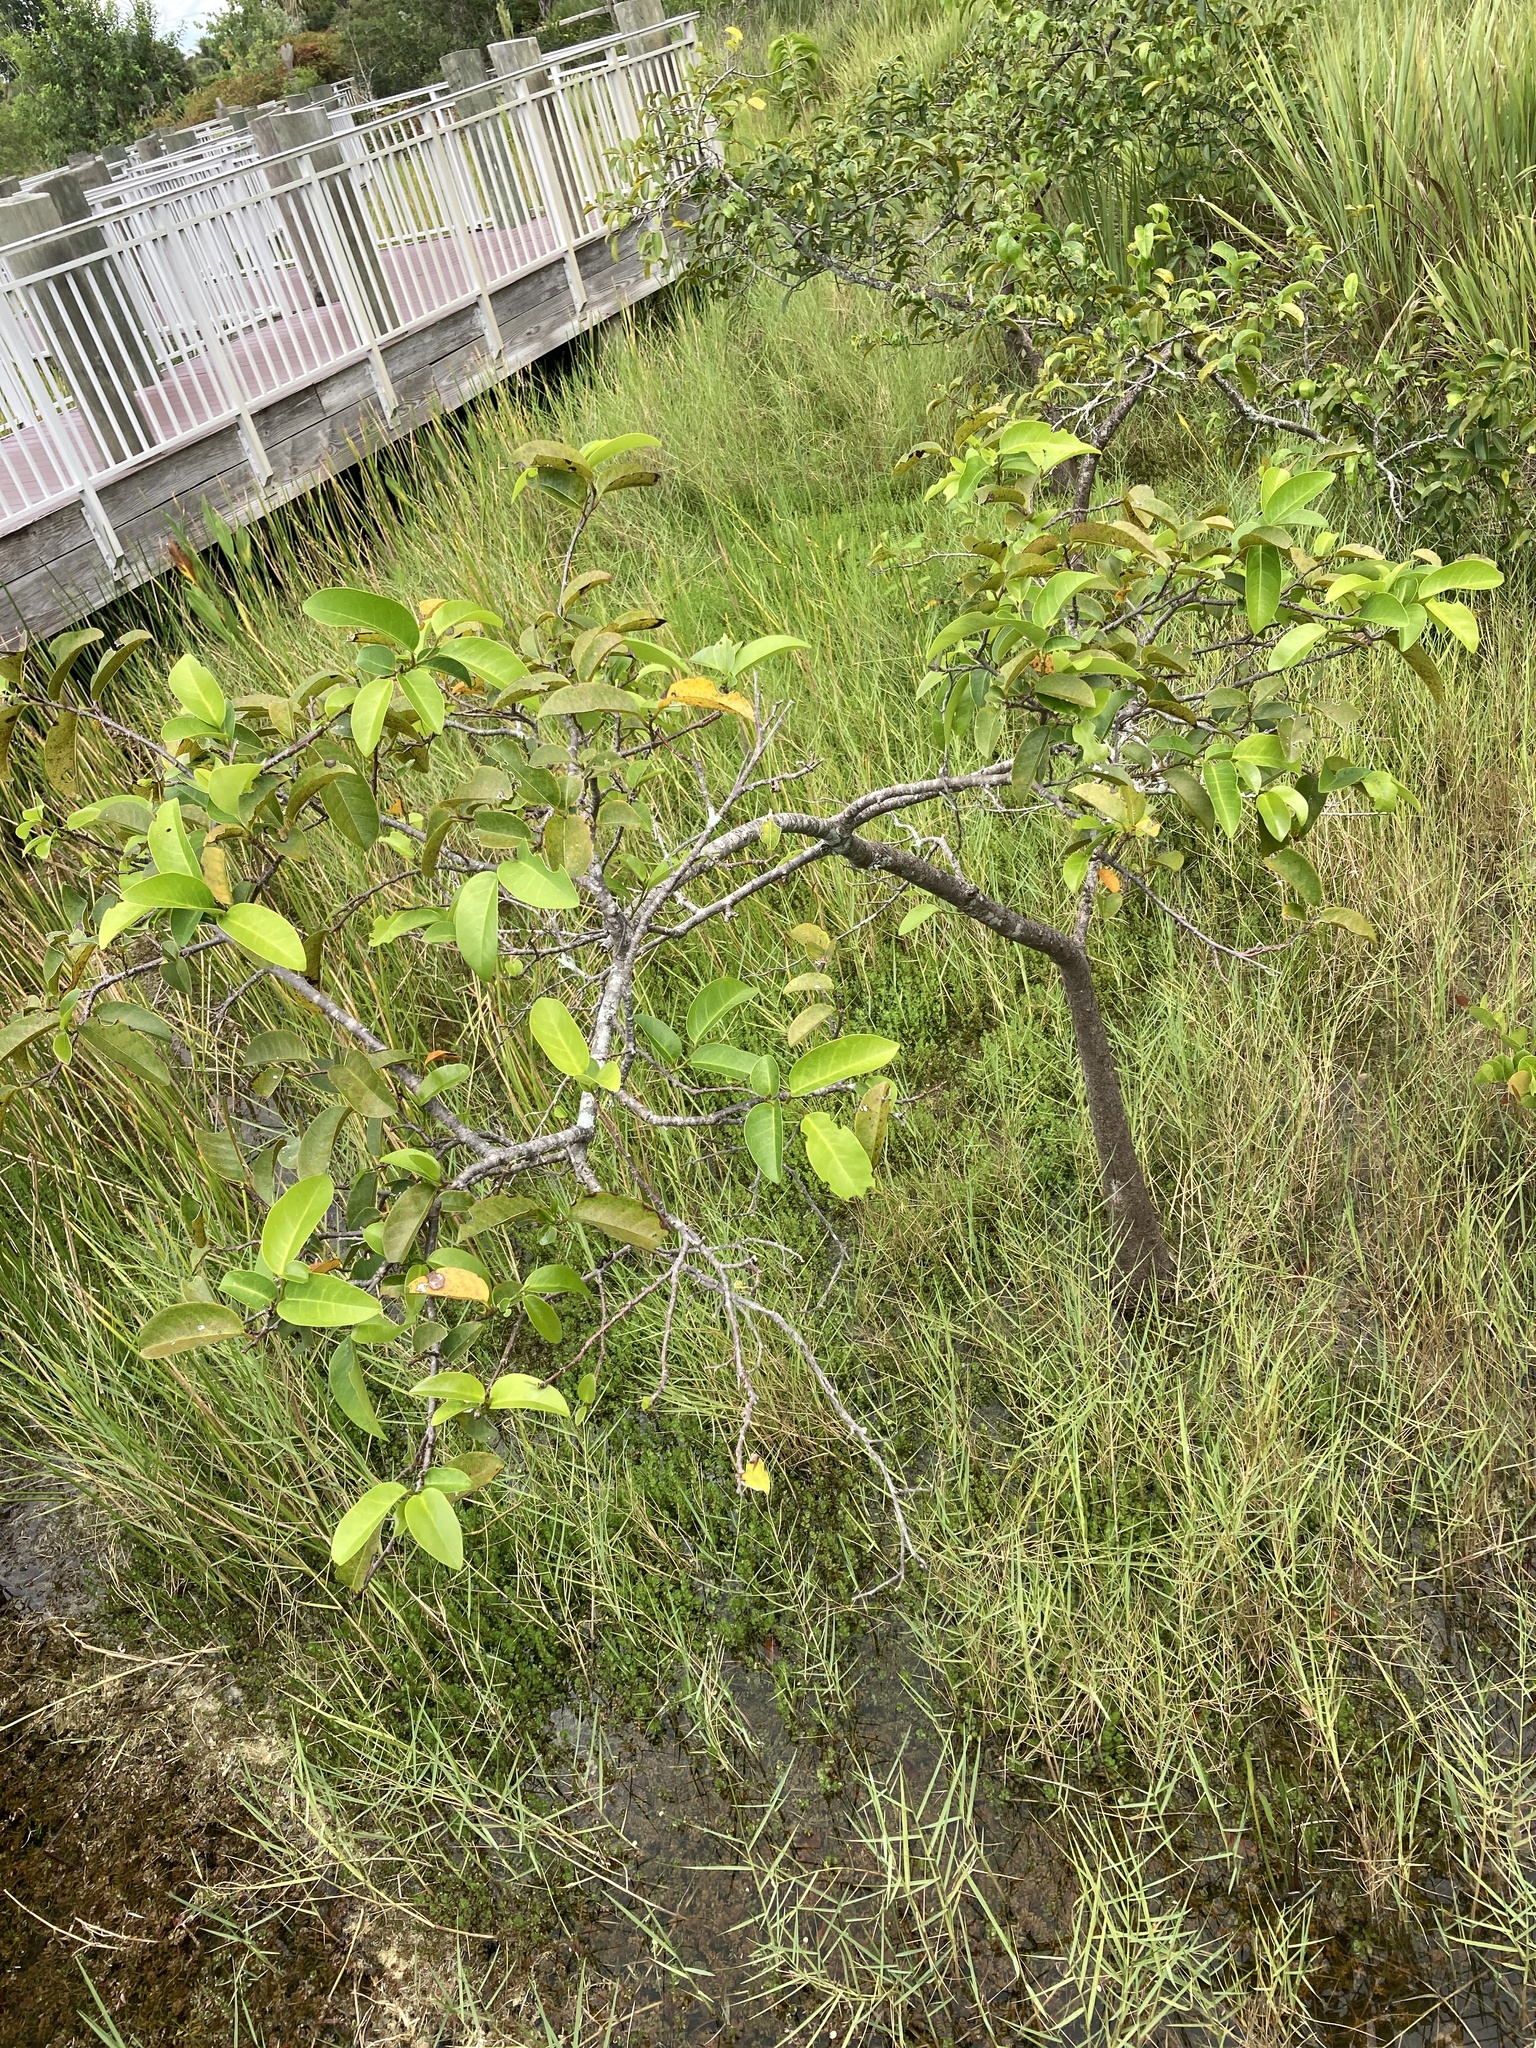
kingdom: Plantae
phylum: Tracheophyta
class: Magnoliopsida
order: Magnoliales
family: Annonaceae
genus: Annona
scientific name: Annona glabra
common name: Monkey apple
